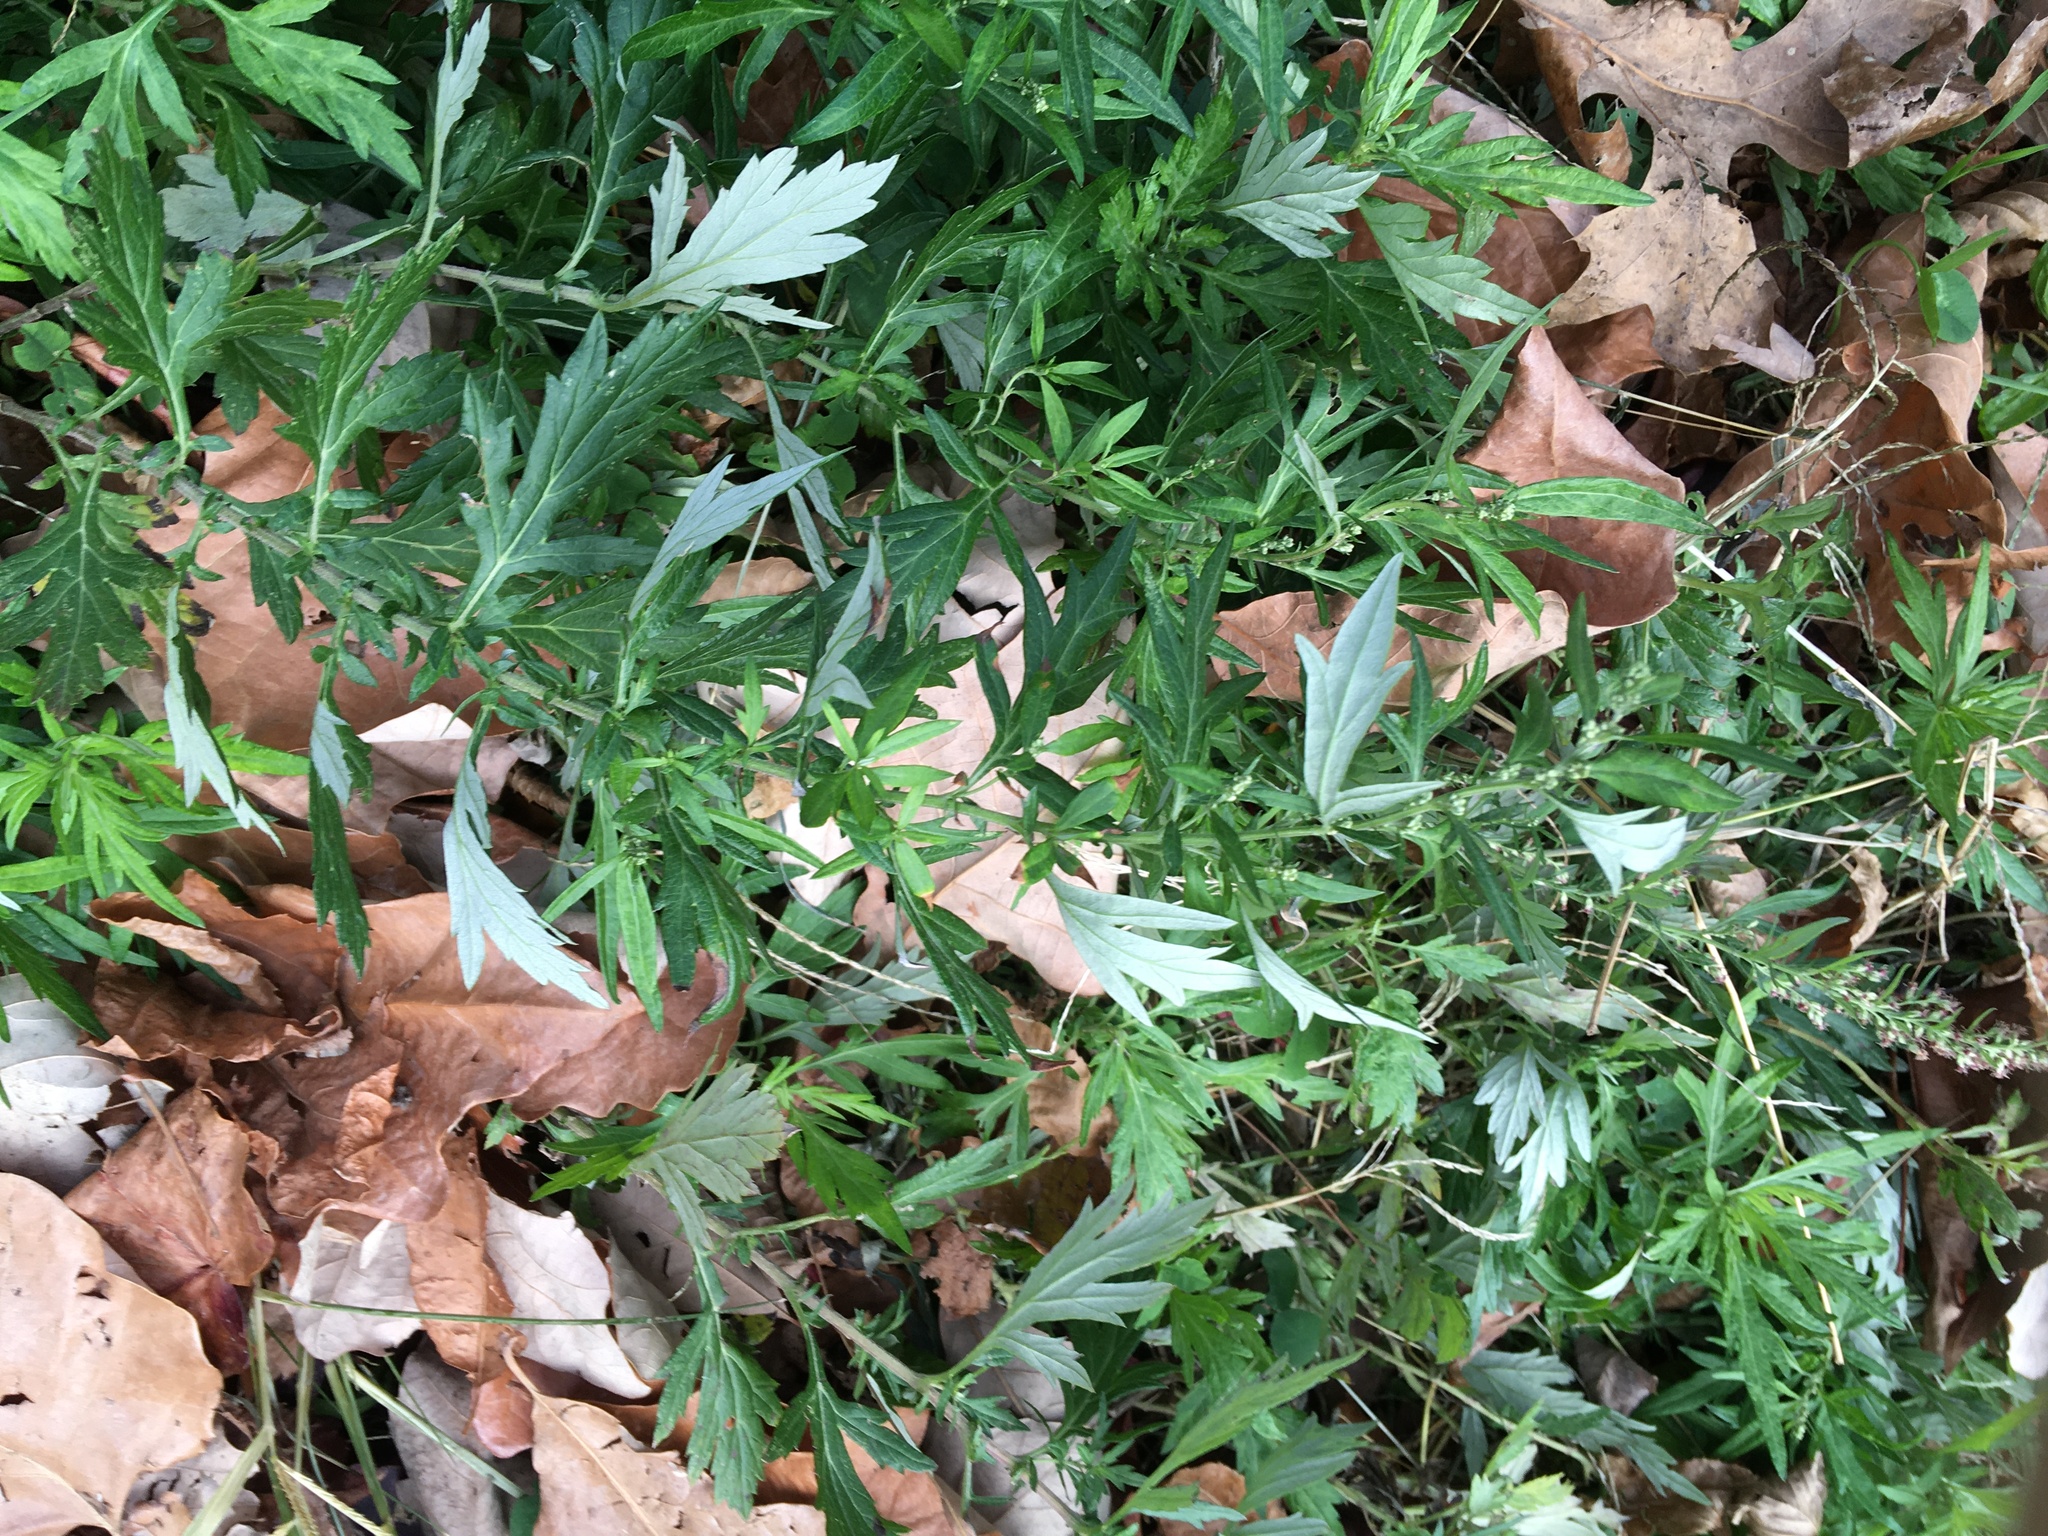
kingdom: Plantae
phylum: Tracheophyta
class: Magnoliopsida
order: Asterales
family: Asteraceae
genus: Artemisia
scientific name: Artemisia vulgaris
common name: Mugwort
